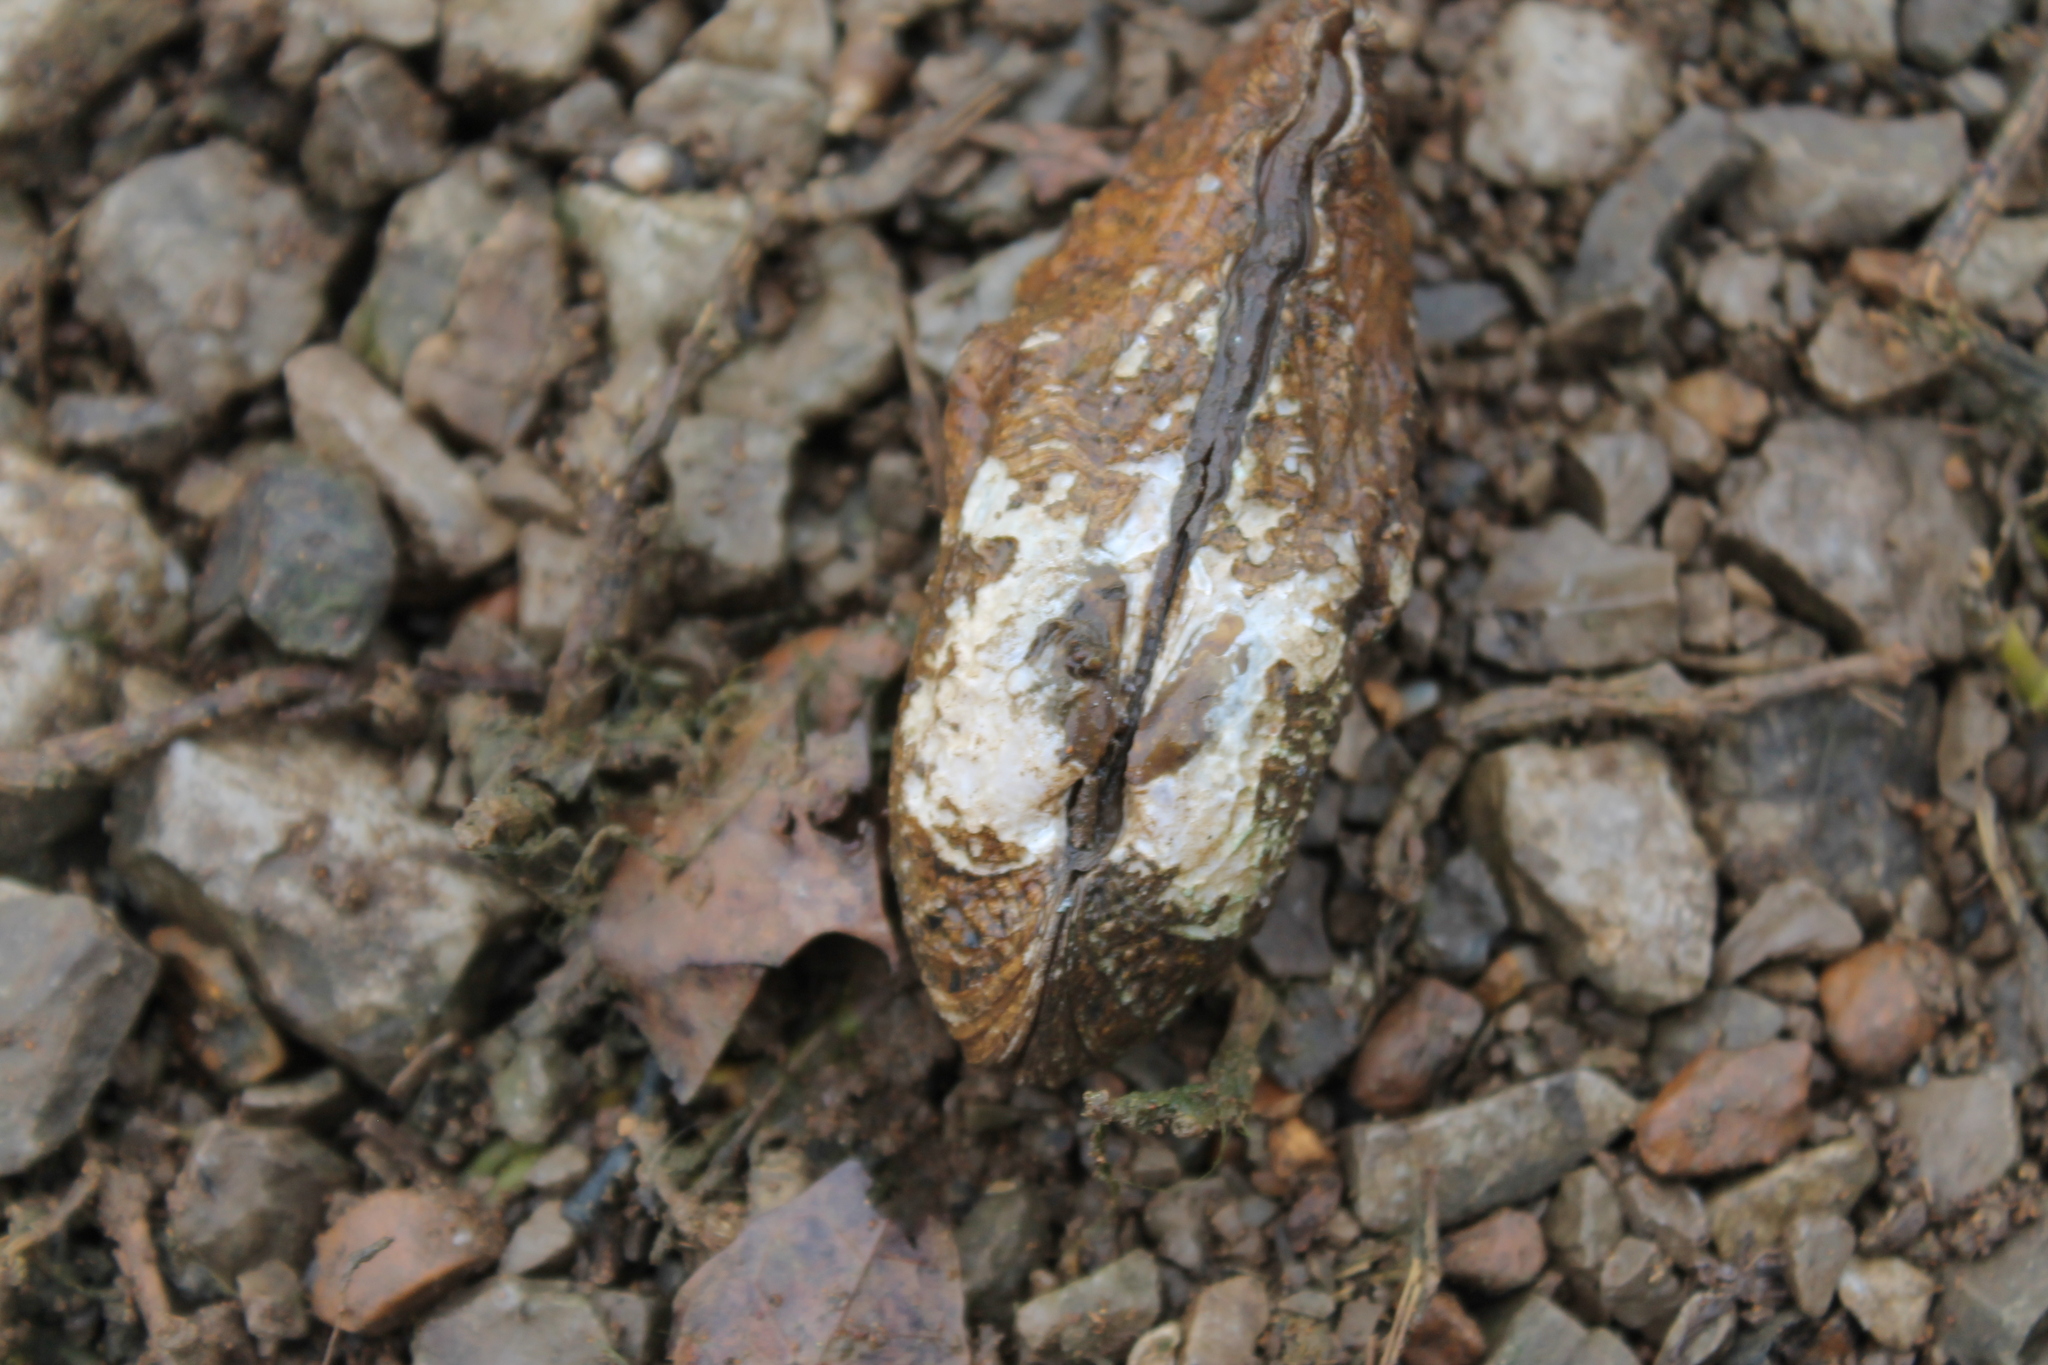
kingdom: Animalia
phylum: Mollusca
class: Bivalvia
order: Unionida
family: Unionidae
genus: Theliderma
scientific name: Theliderma cylindrica
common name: Rabbitsfoot
